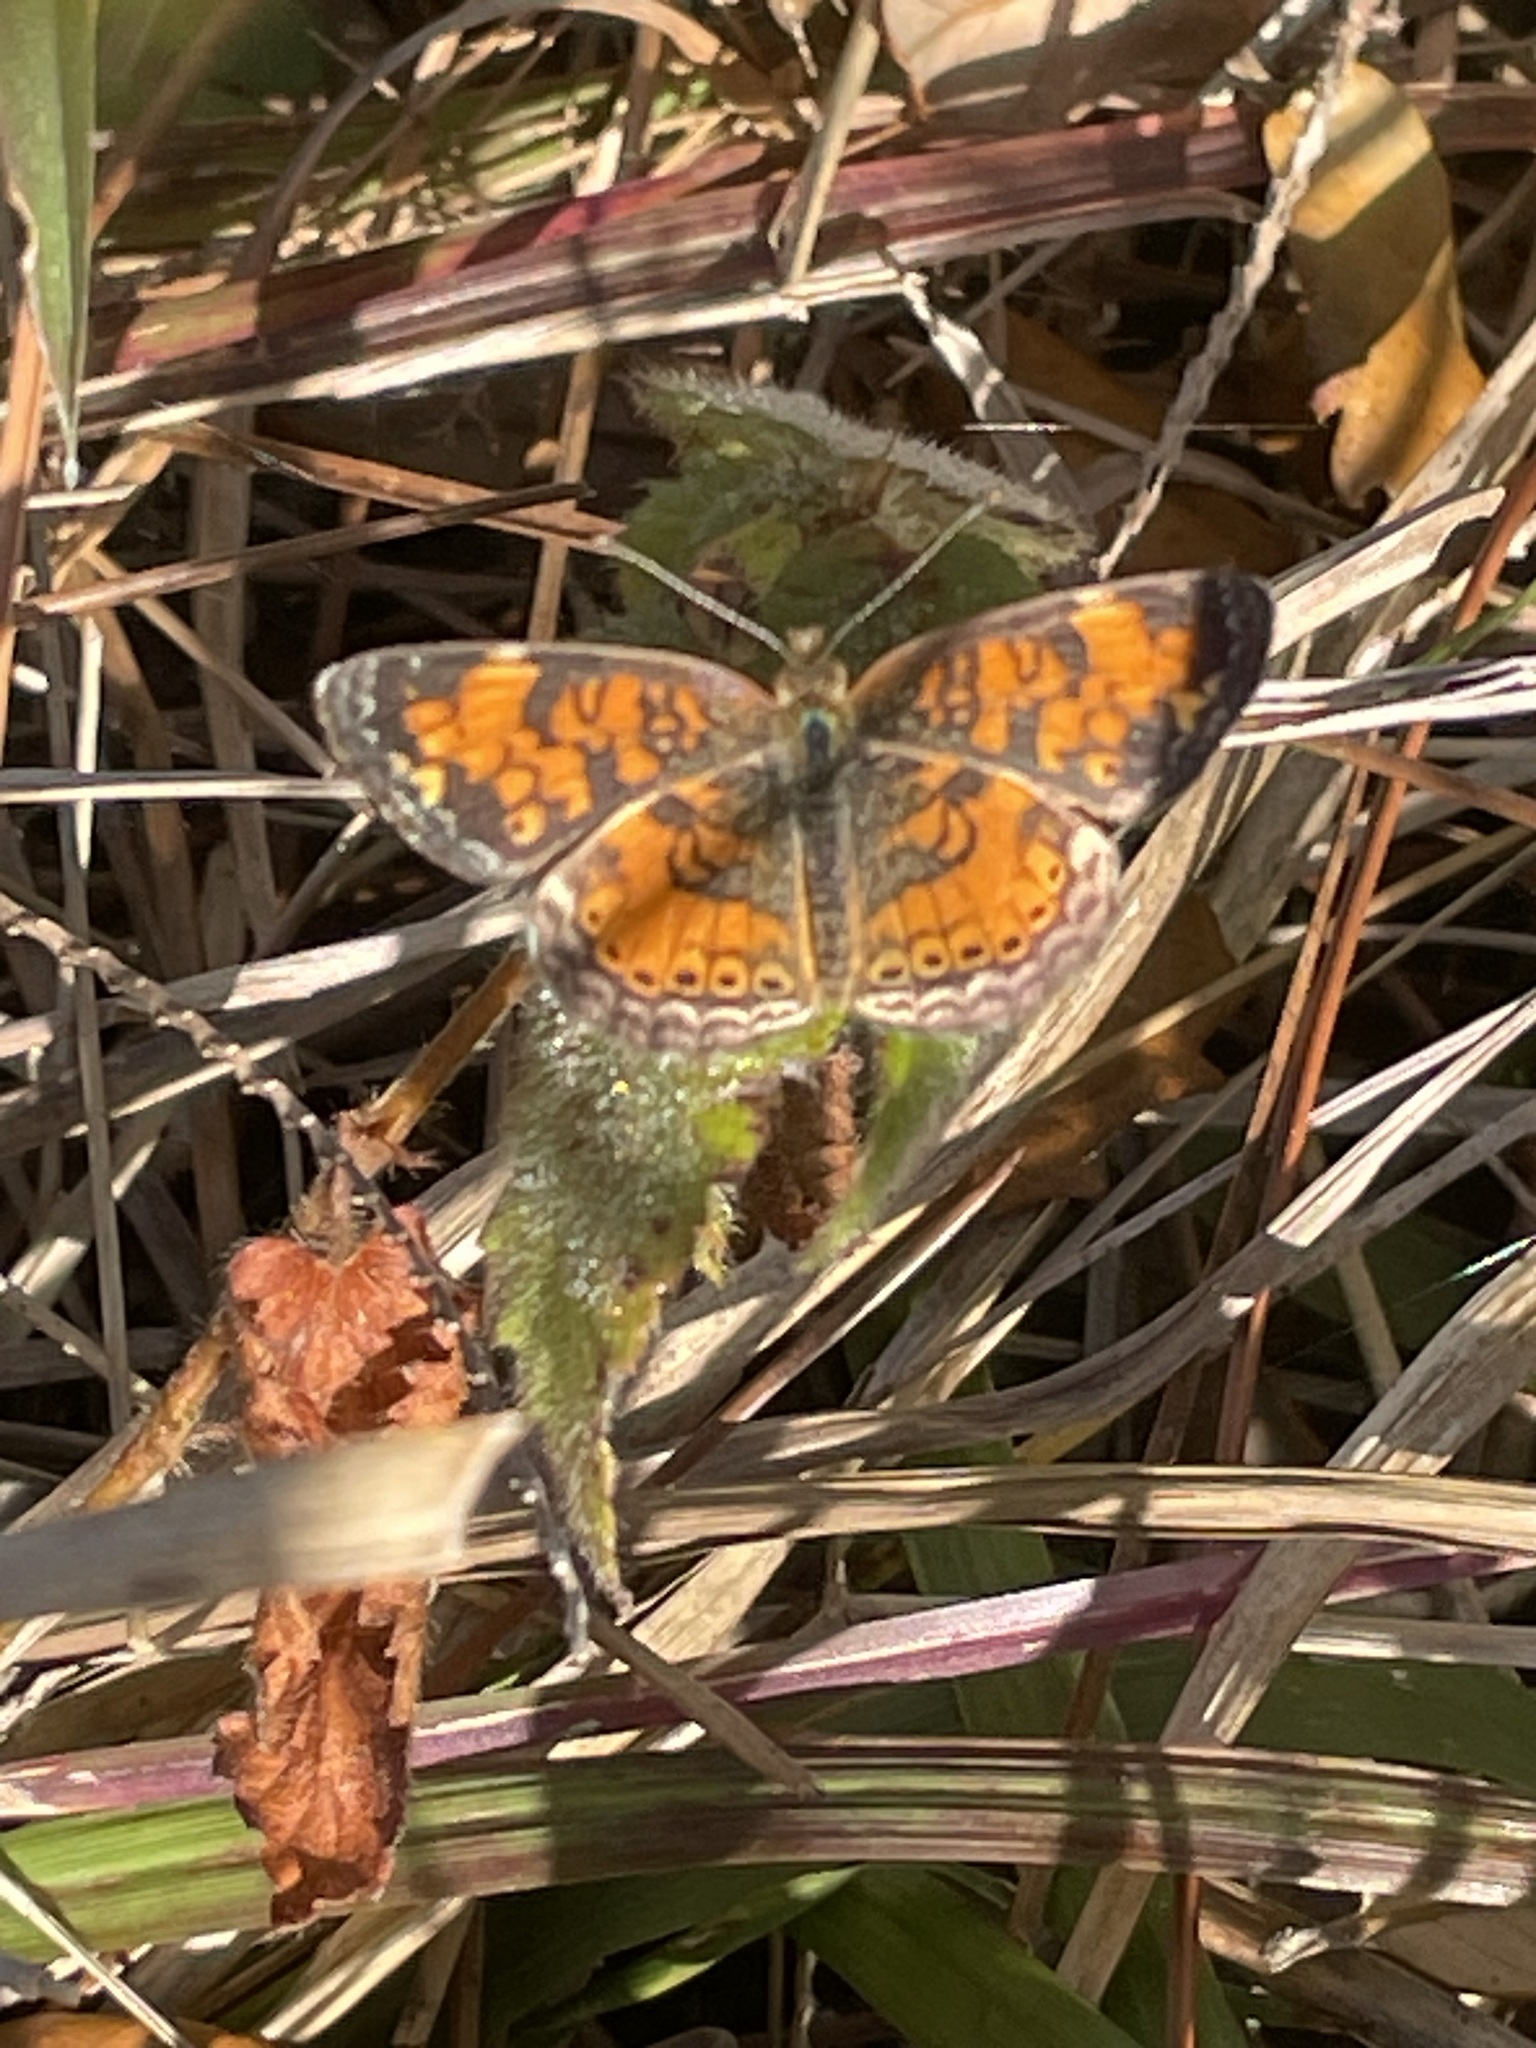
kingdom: Animalia
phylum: Arthropoda
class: Insecta
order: Lepidoptera
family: Nymphalidae
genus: Phyciodes
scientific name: Phyciodes tharos
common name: Pearl crescent
